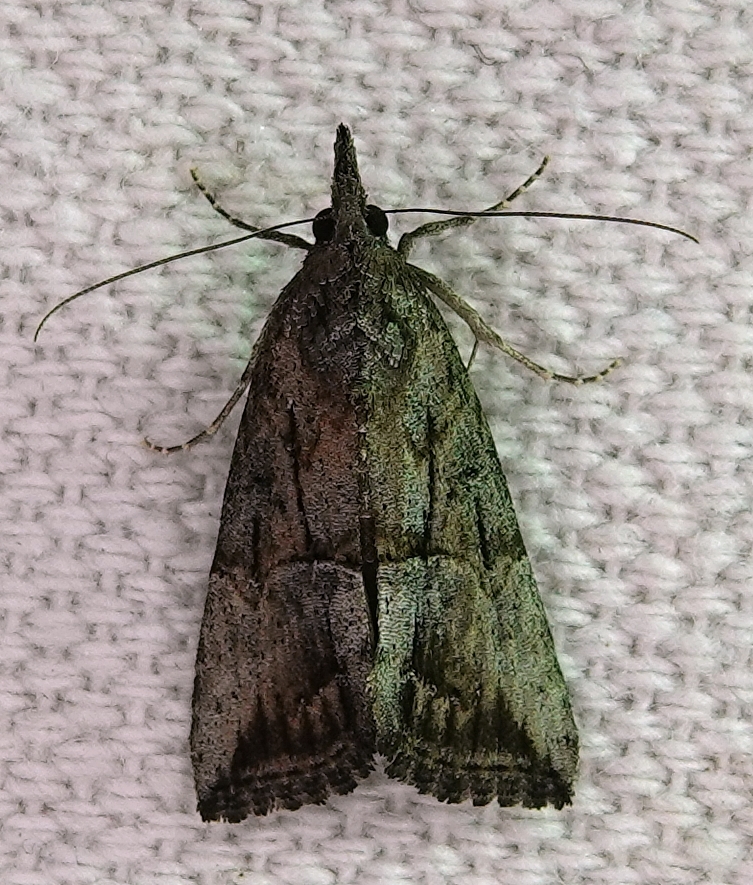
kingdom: Animalia
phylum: Arthropoda
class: Insecta
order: Lepidoptera
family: Erebidae
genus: Hypena
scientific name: Hypena scabra
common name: Green cloverworm
